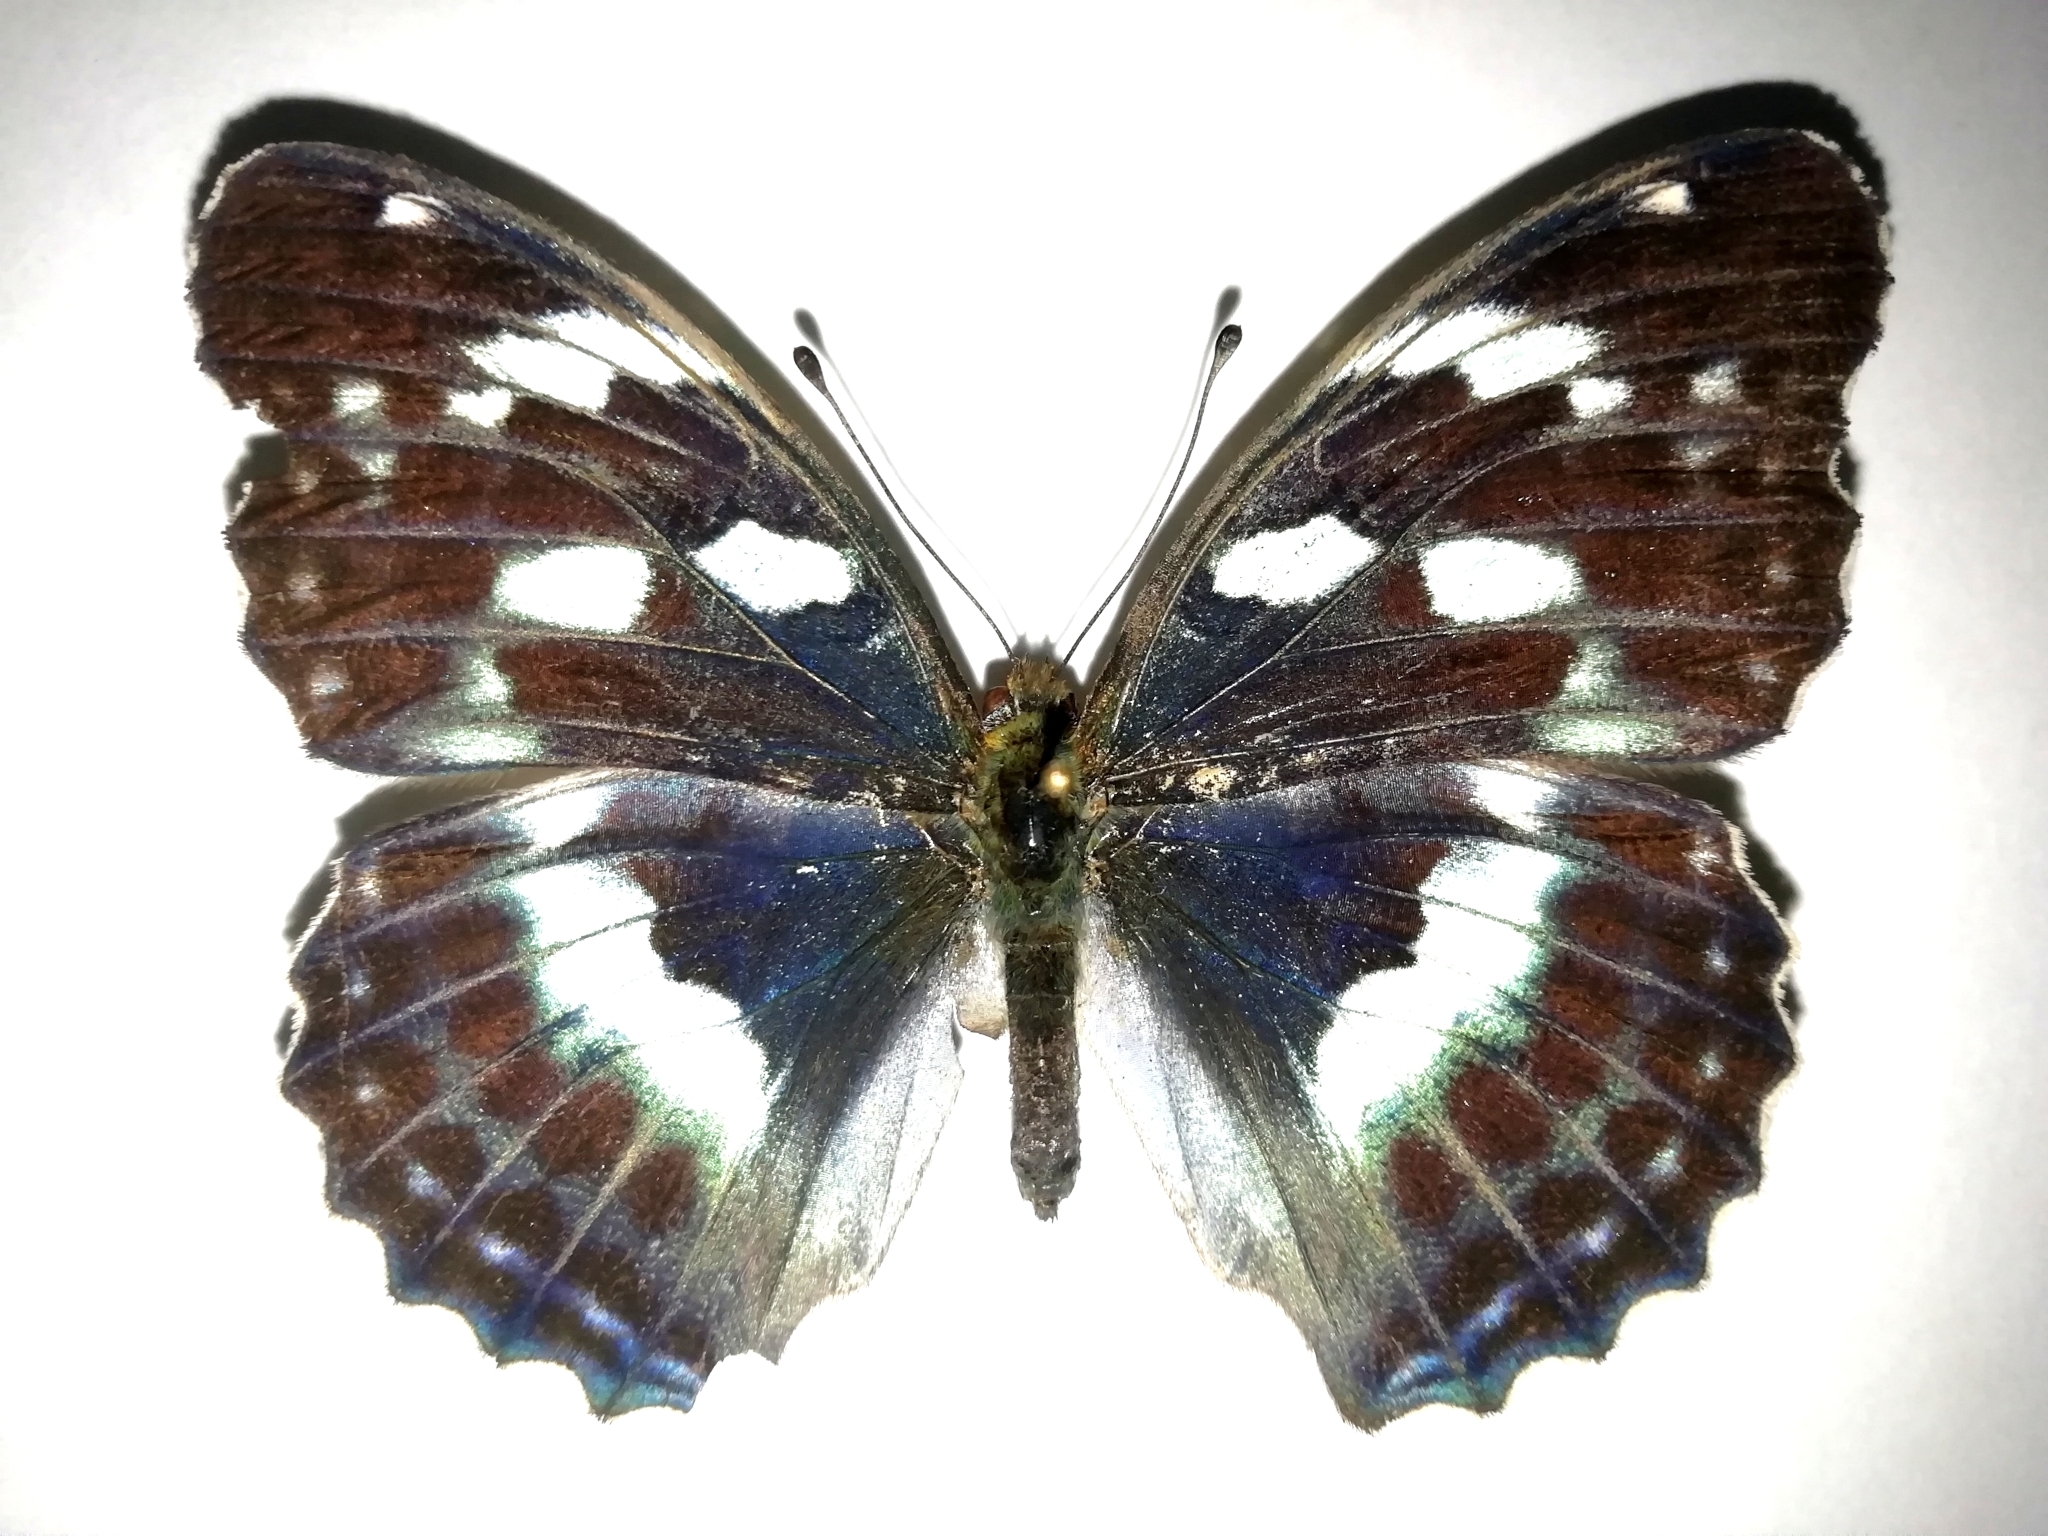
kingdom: Animalia
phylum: Arthropoda
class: Insecta
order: Lepidoptera
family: Nymphalidae
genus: Damora
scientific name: Damora sagana
